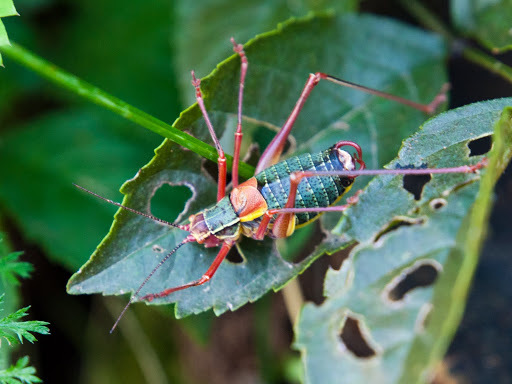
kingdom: Animalia
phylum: Arthropoda
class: Insecta
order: Orthoptera
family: Tettigoniidae
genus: Barbitistes
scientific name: Barbitistes obtusus
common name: Alpine saw bush-cricket
